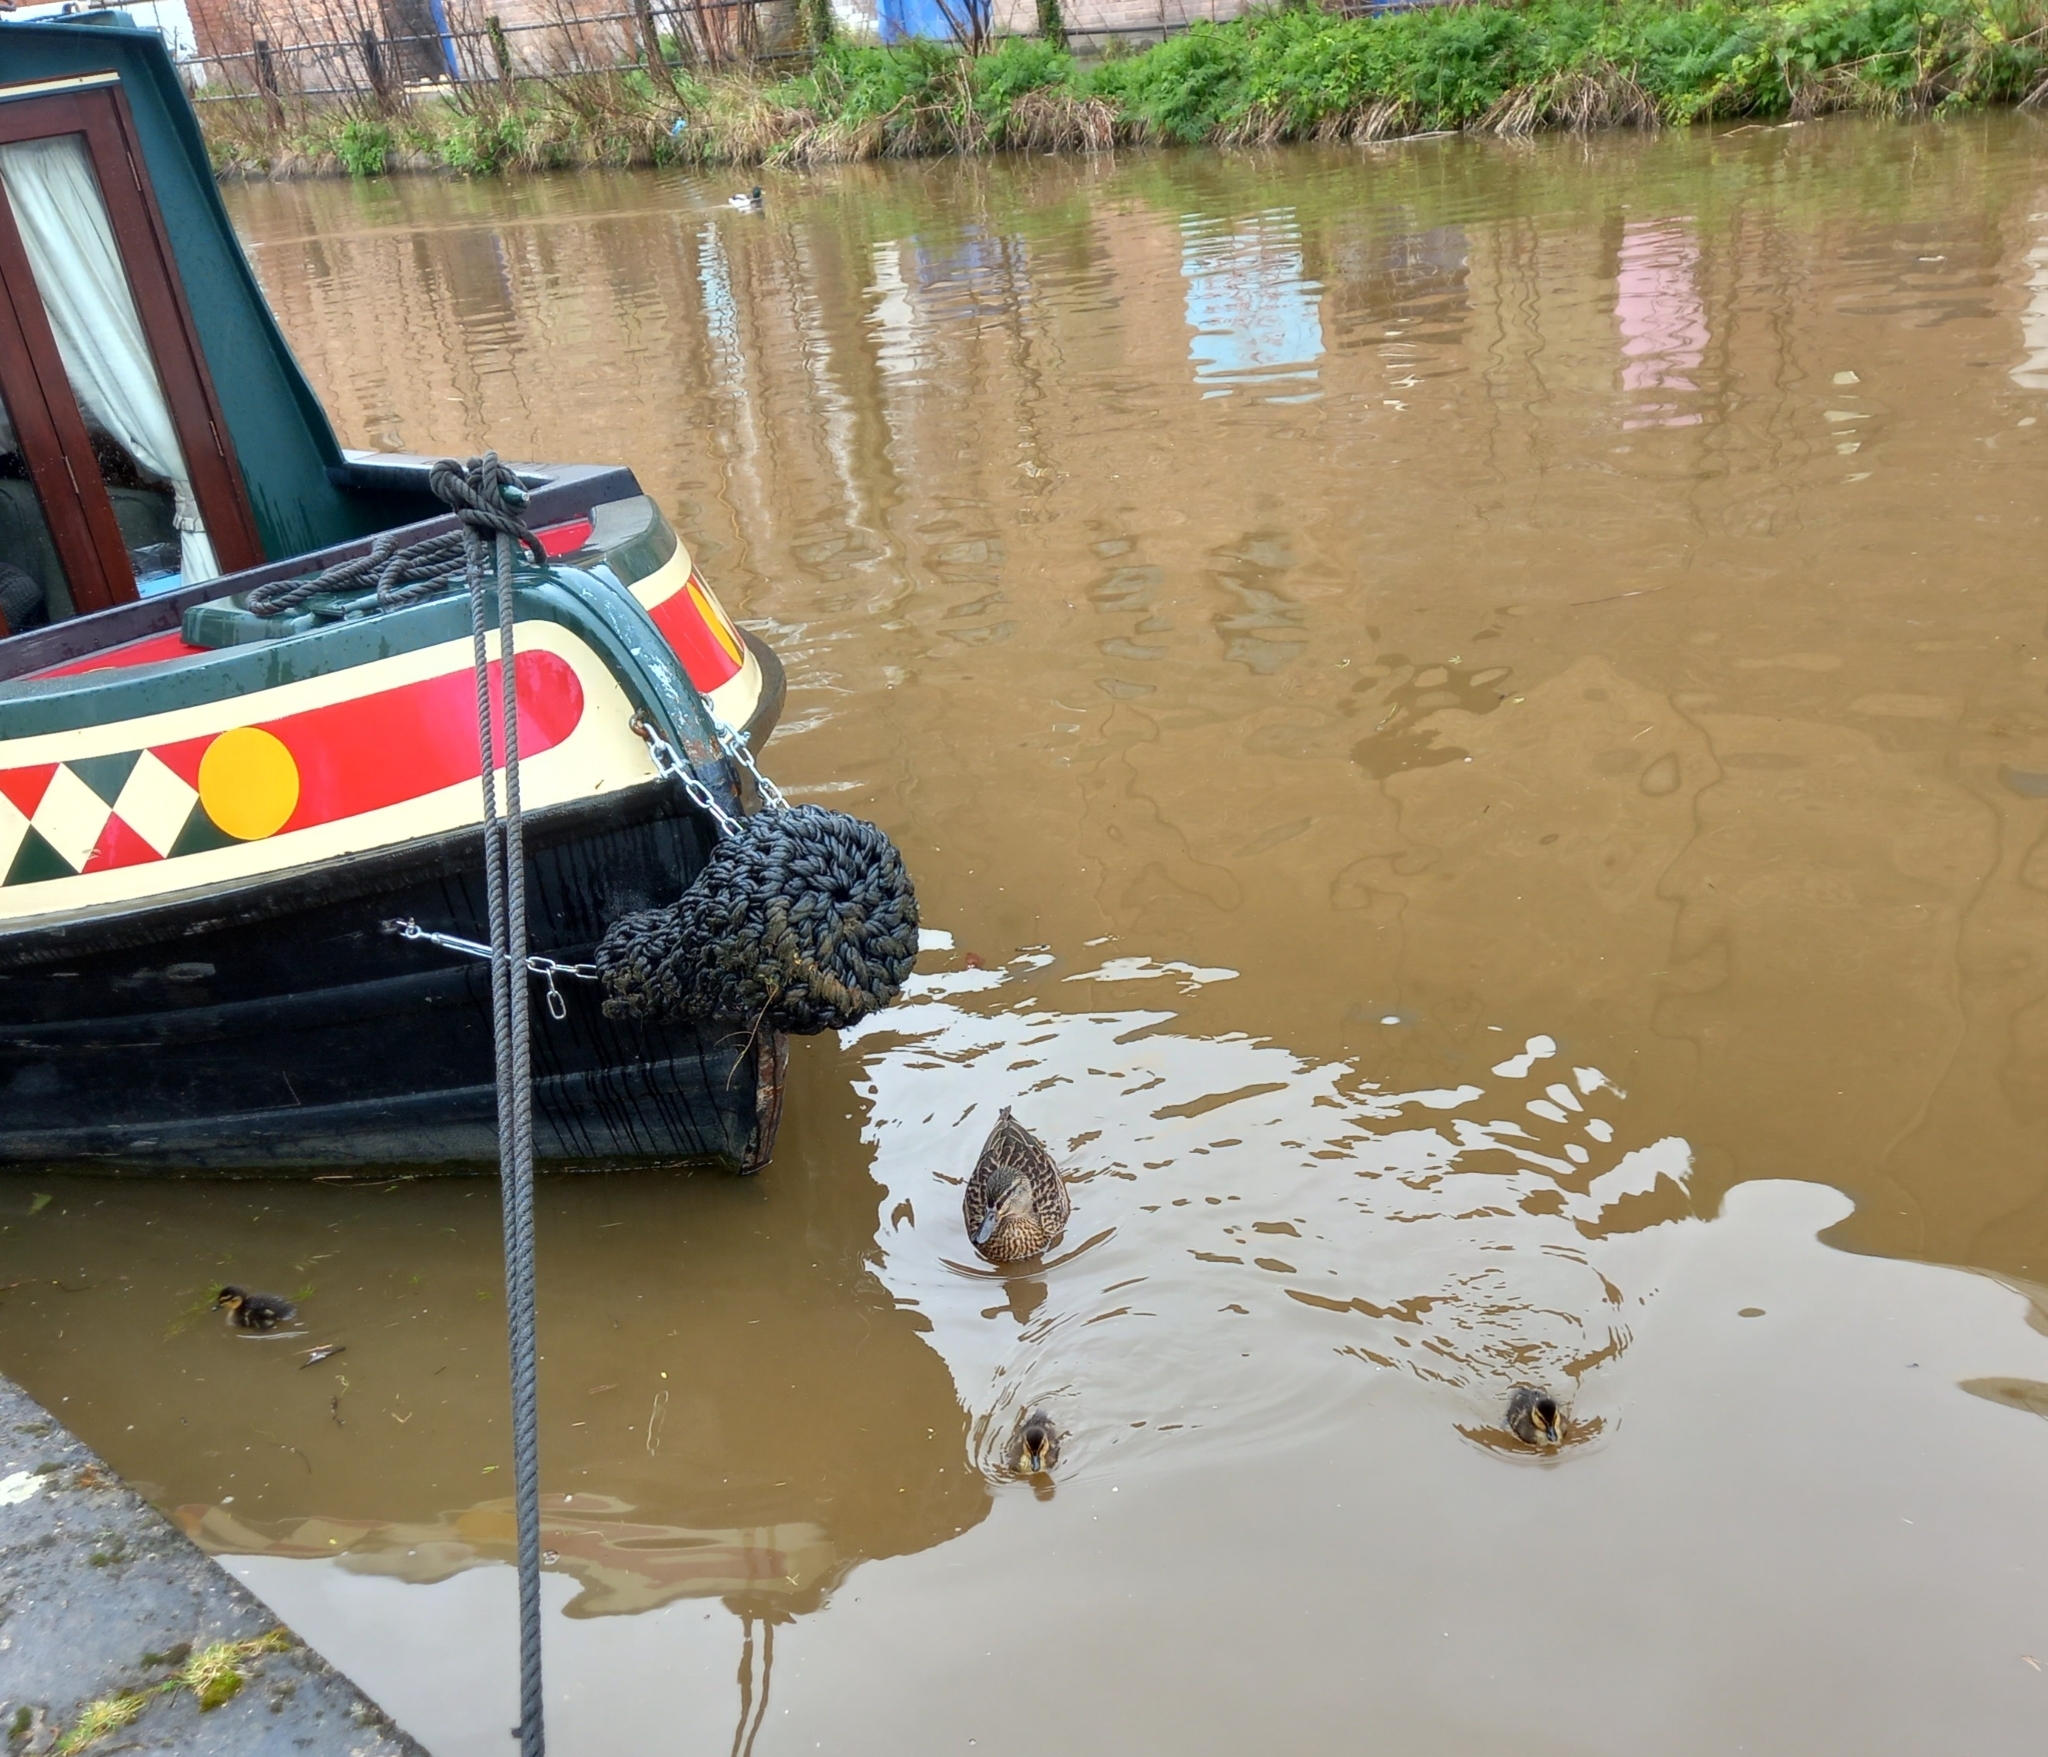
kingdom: Animalia
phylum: Chordata
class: Aves
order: Anseriformes
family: Anatidae
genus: Anas
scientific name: Anas platyrhynchos
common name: Mallard
